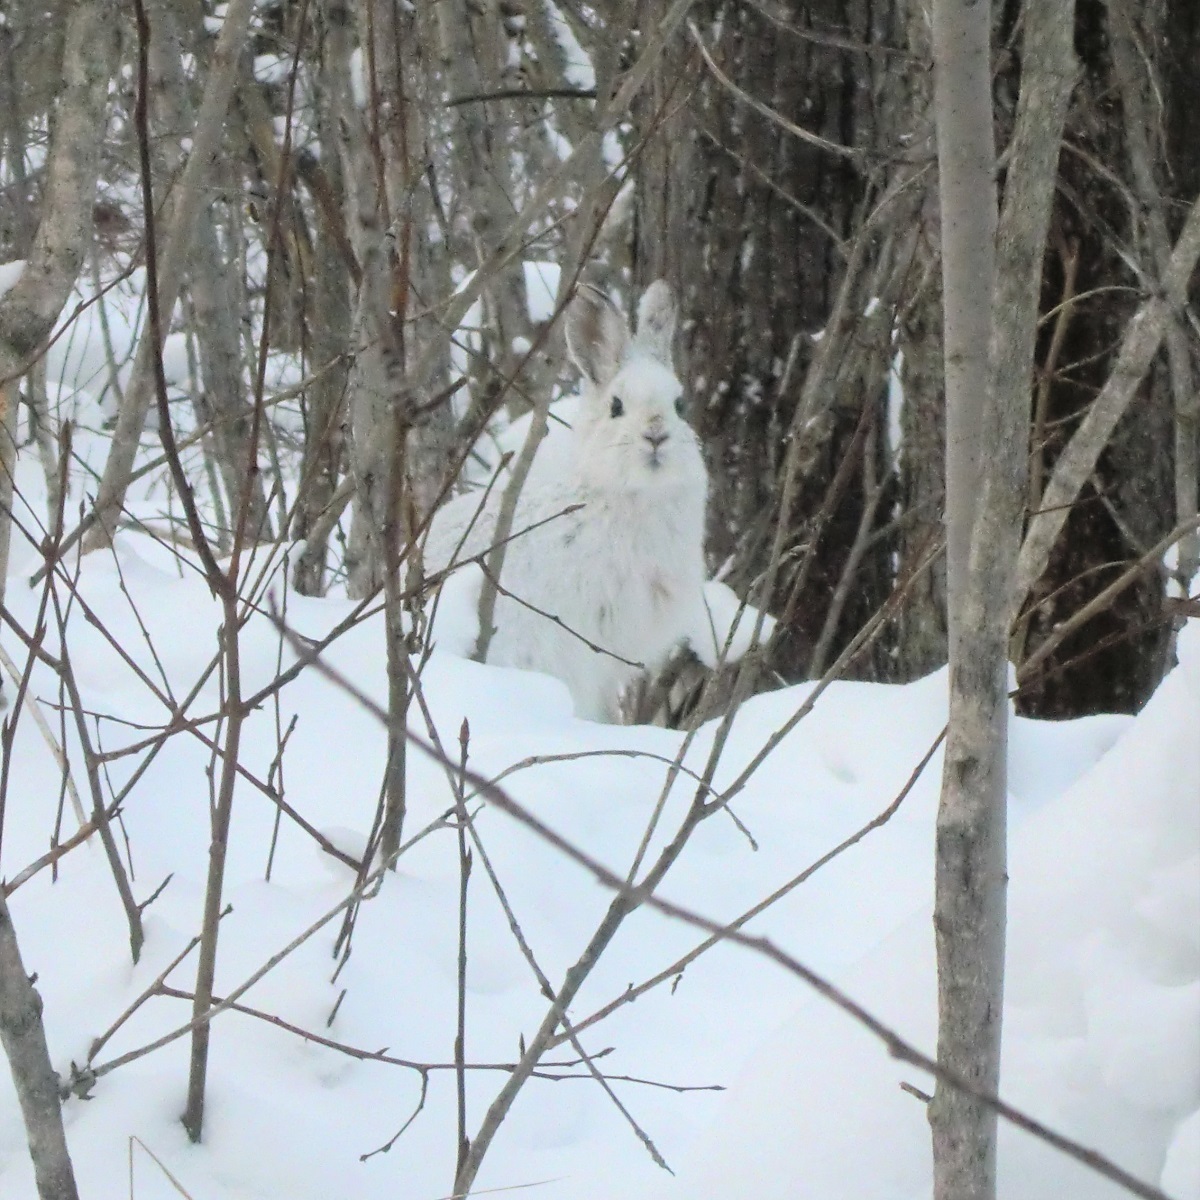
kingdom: Animalia
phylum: Chordata
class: Mammalia
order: Lagomorpha
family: Leporidae
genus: Lepus
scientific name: Lepus americanus
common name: Snowshoe hare
